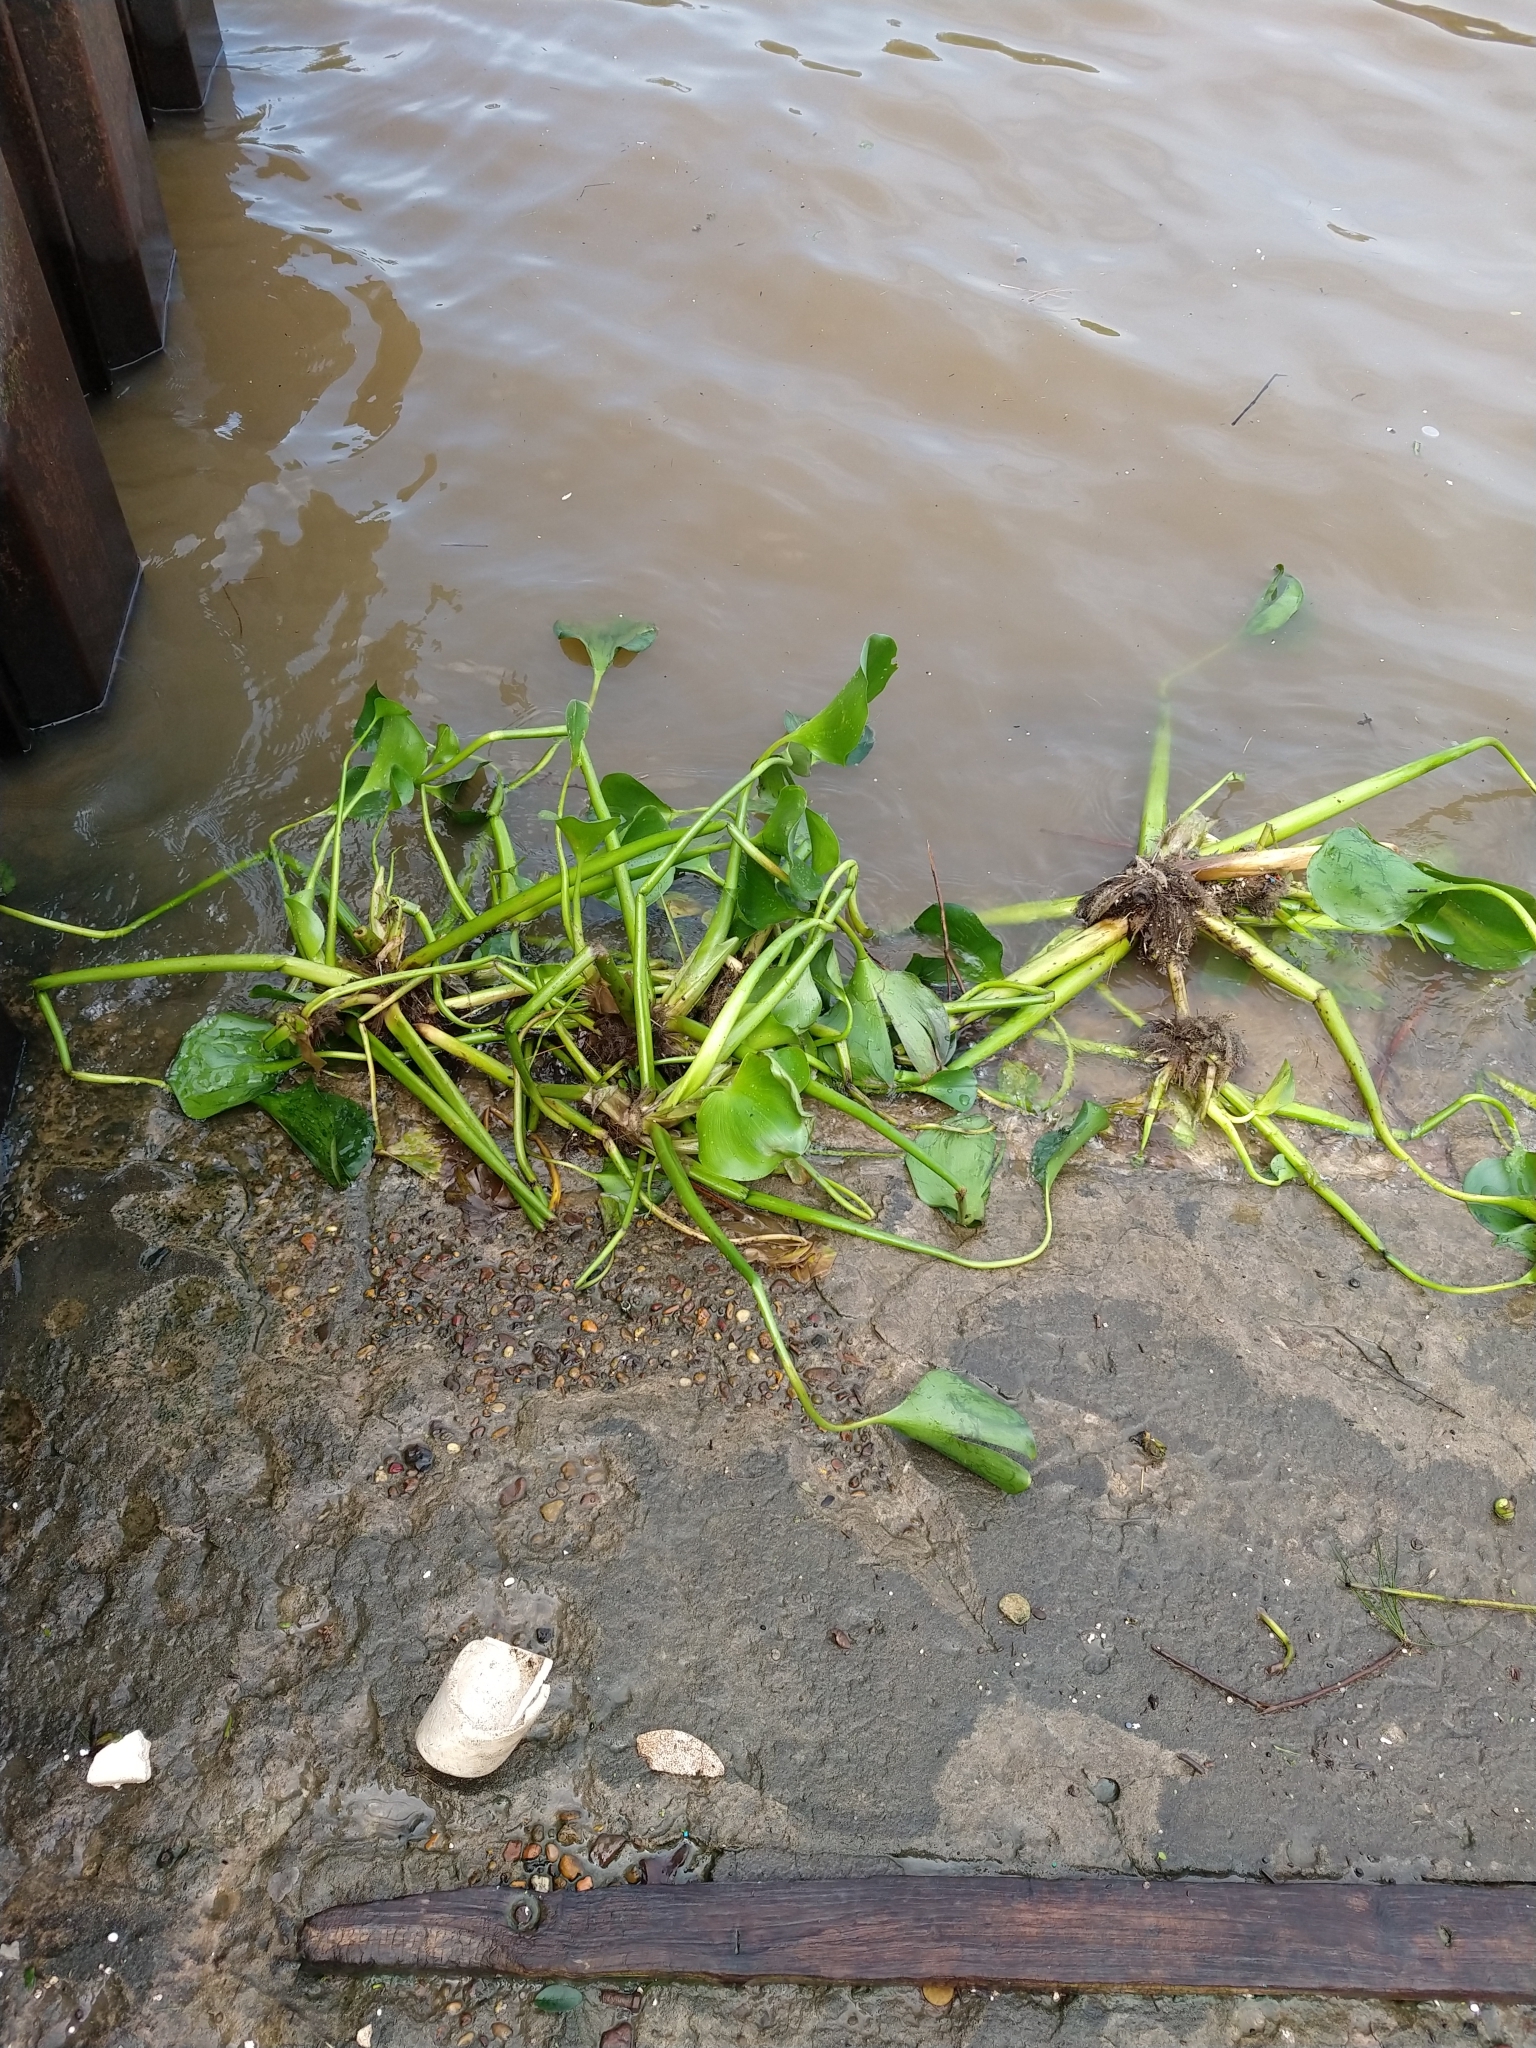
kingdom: Plantae
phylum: Tracheophyta
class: Liliopsida
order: Commelinales
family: Pontederiaceae
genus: Pontederia
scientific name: Pontederia crassipes
